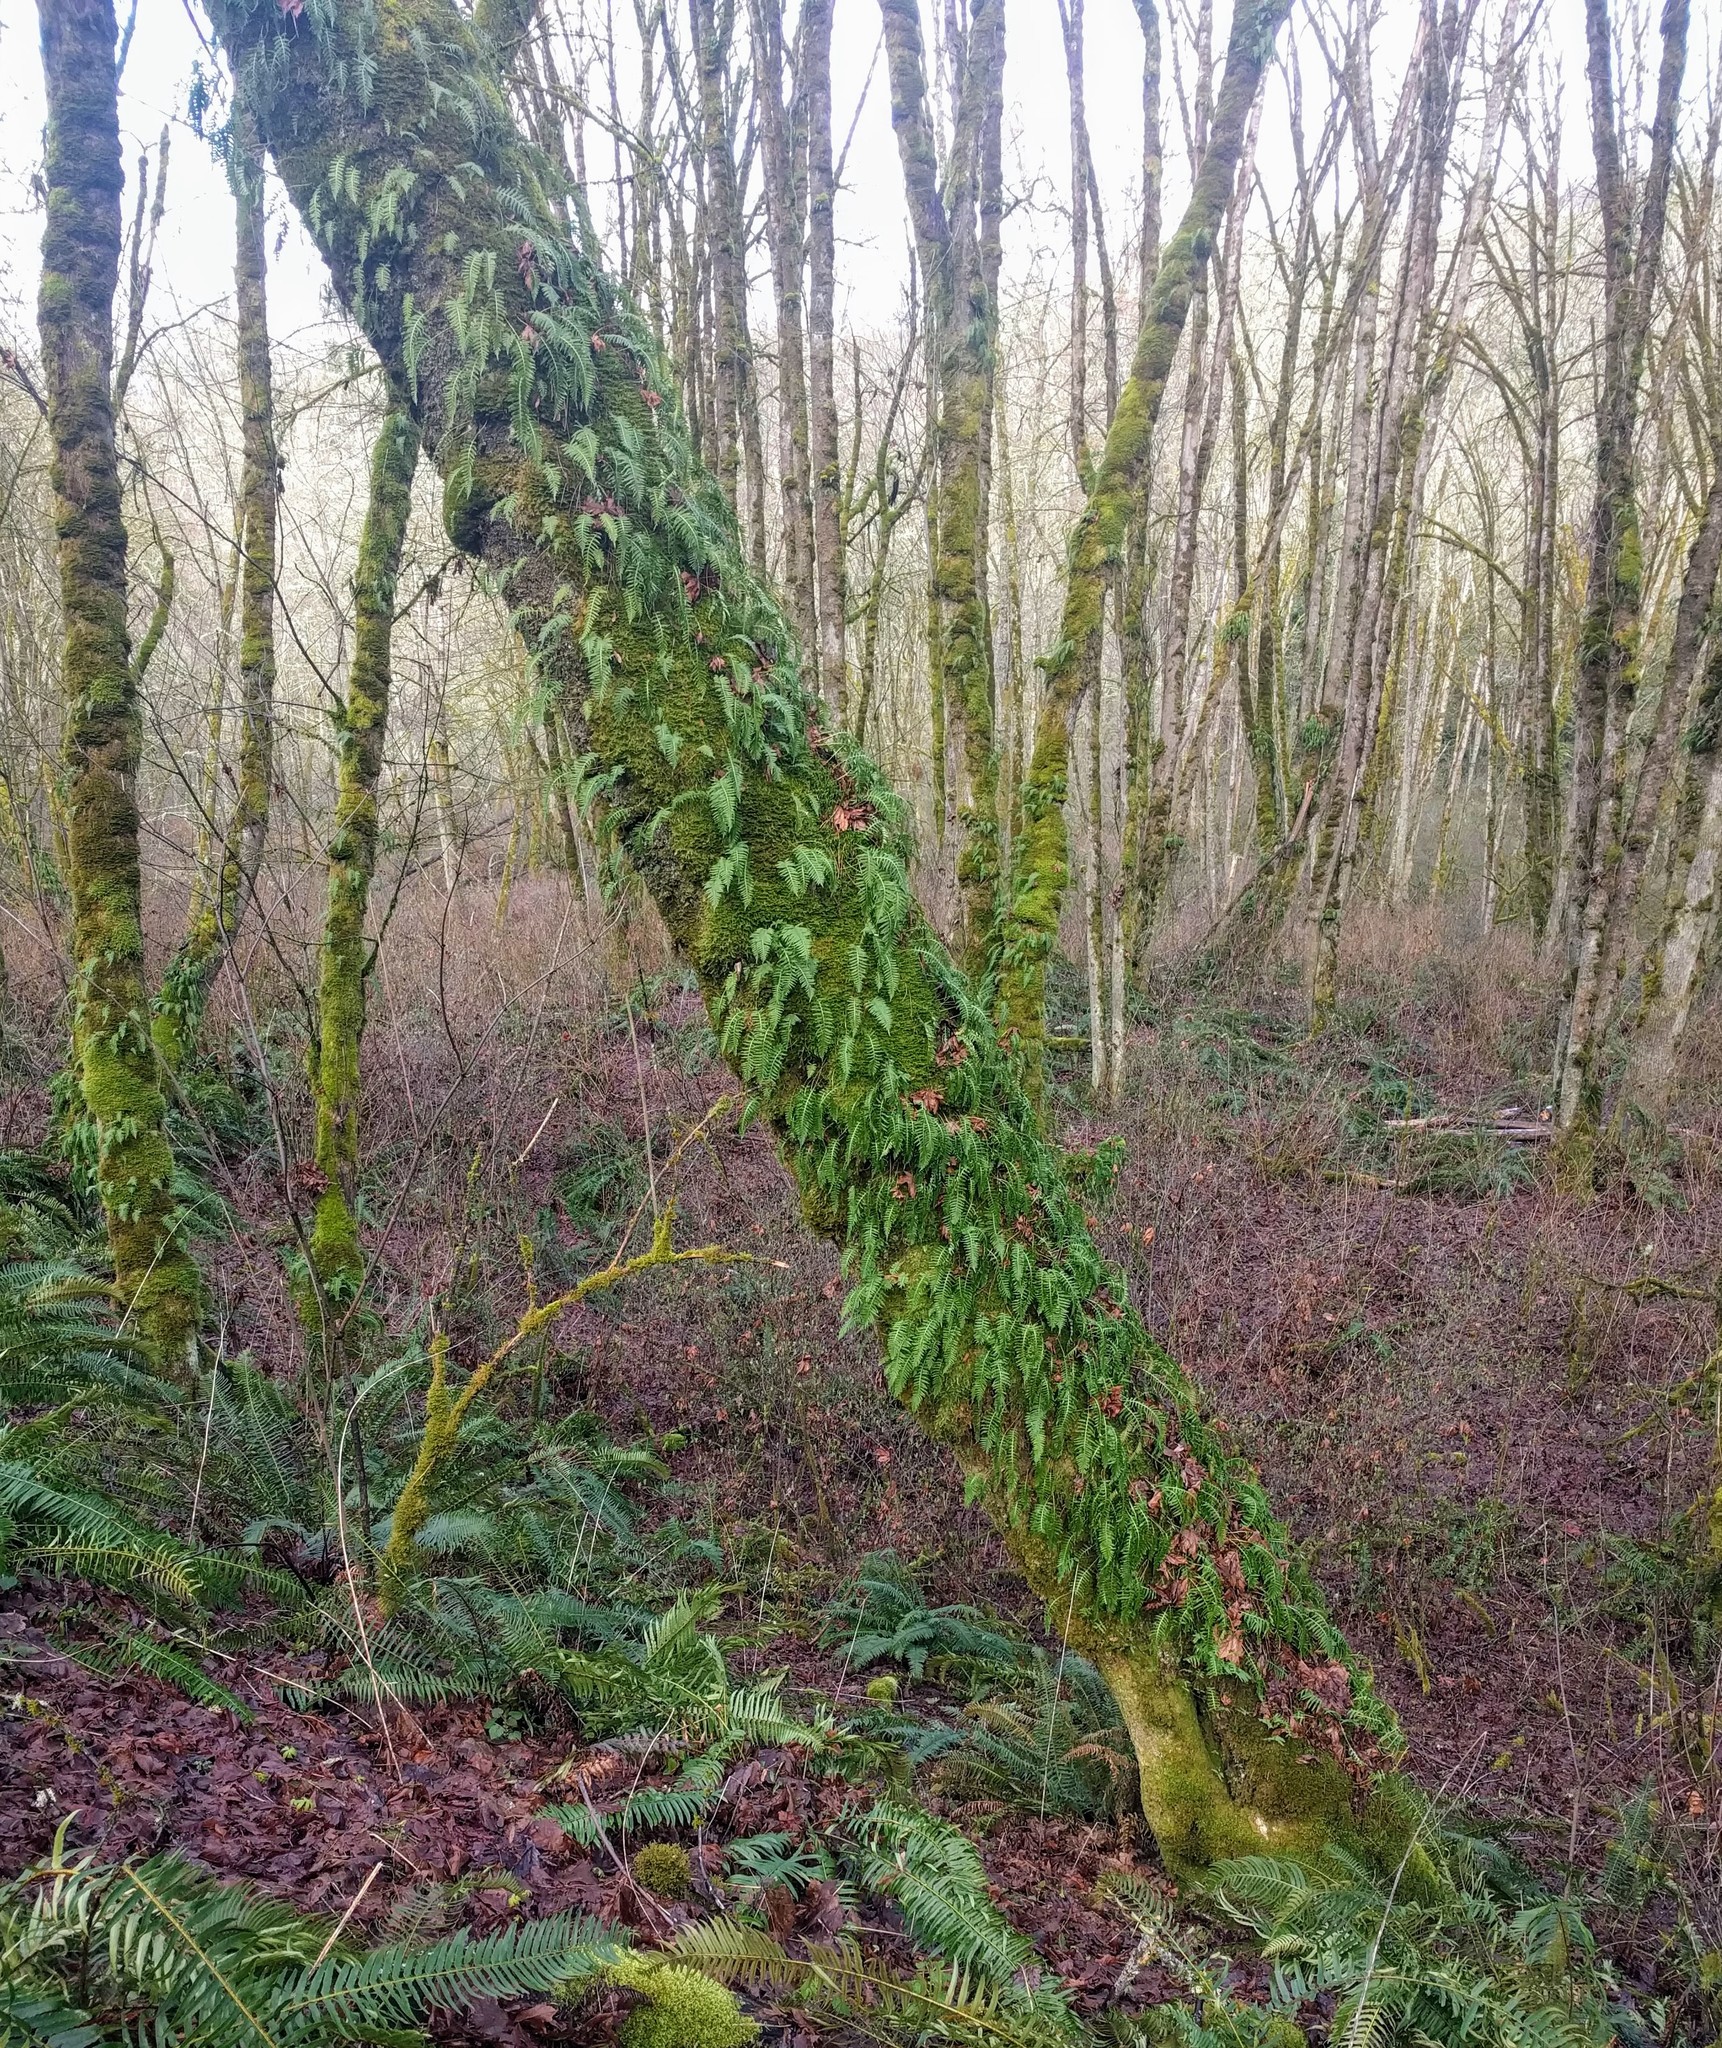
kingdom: Plantae
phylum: Tracheophyta
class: Polypodiopsida
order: Polypodiales
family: Polypodiaceae
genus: Polypodium
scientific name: Polypodium glycyrrhiza
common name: Licorice fern
